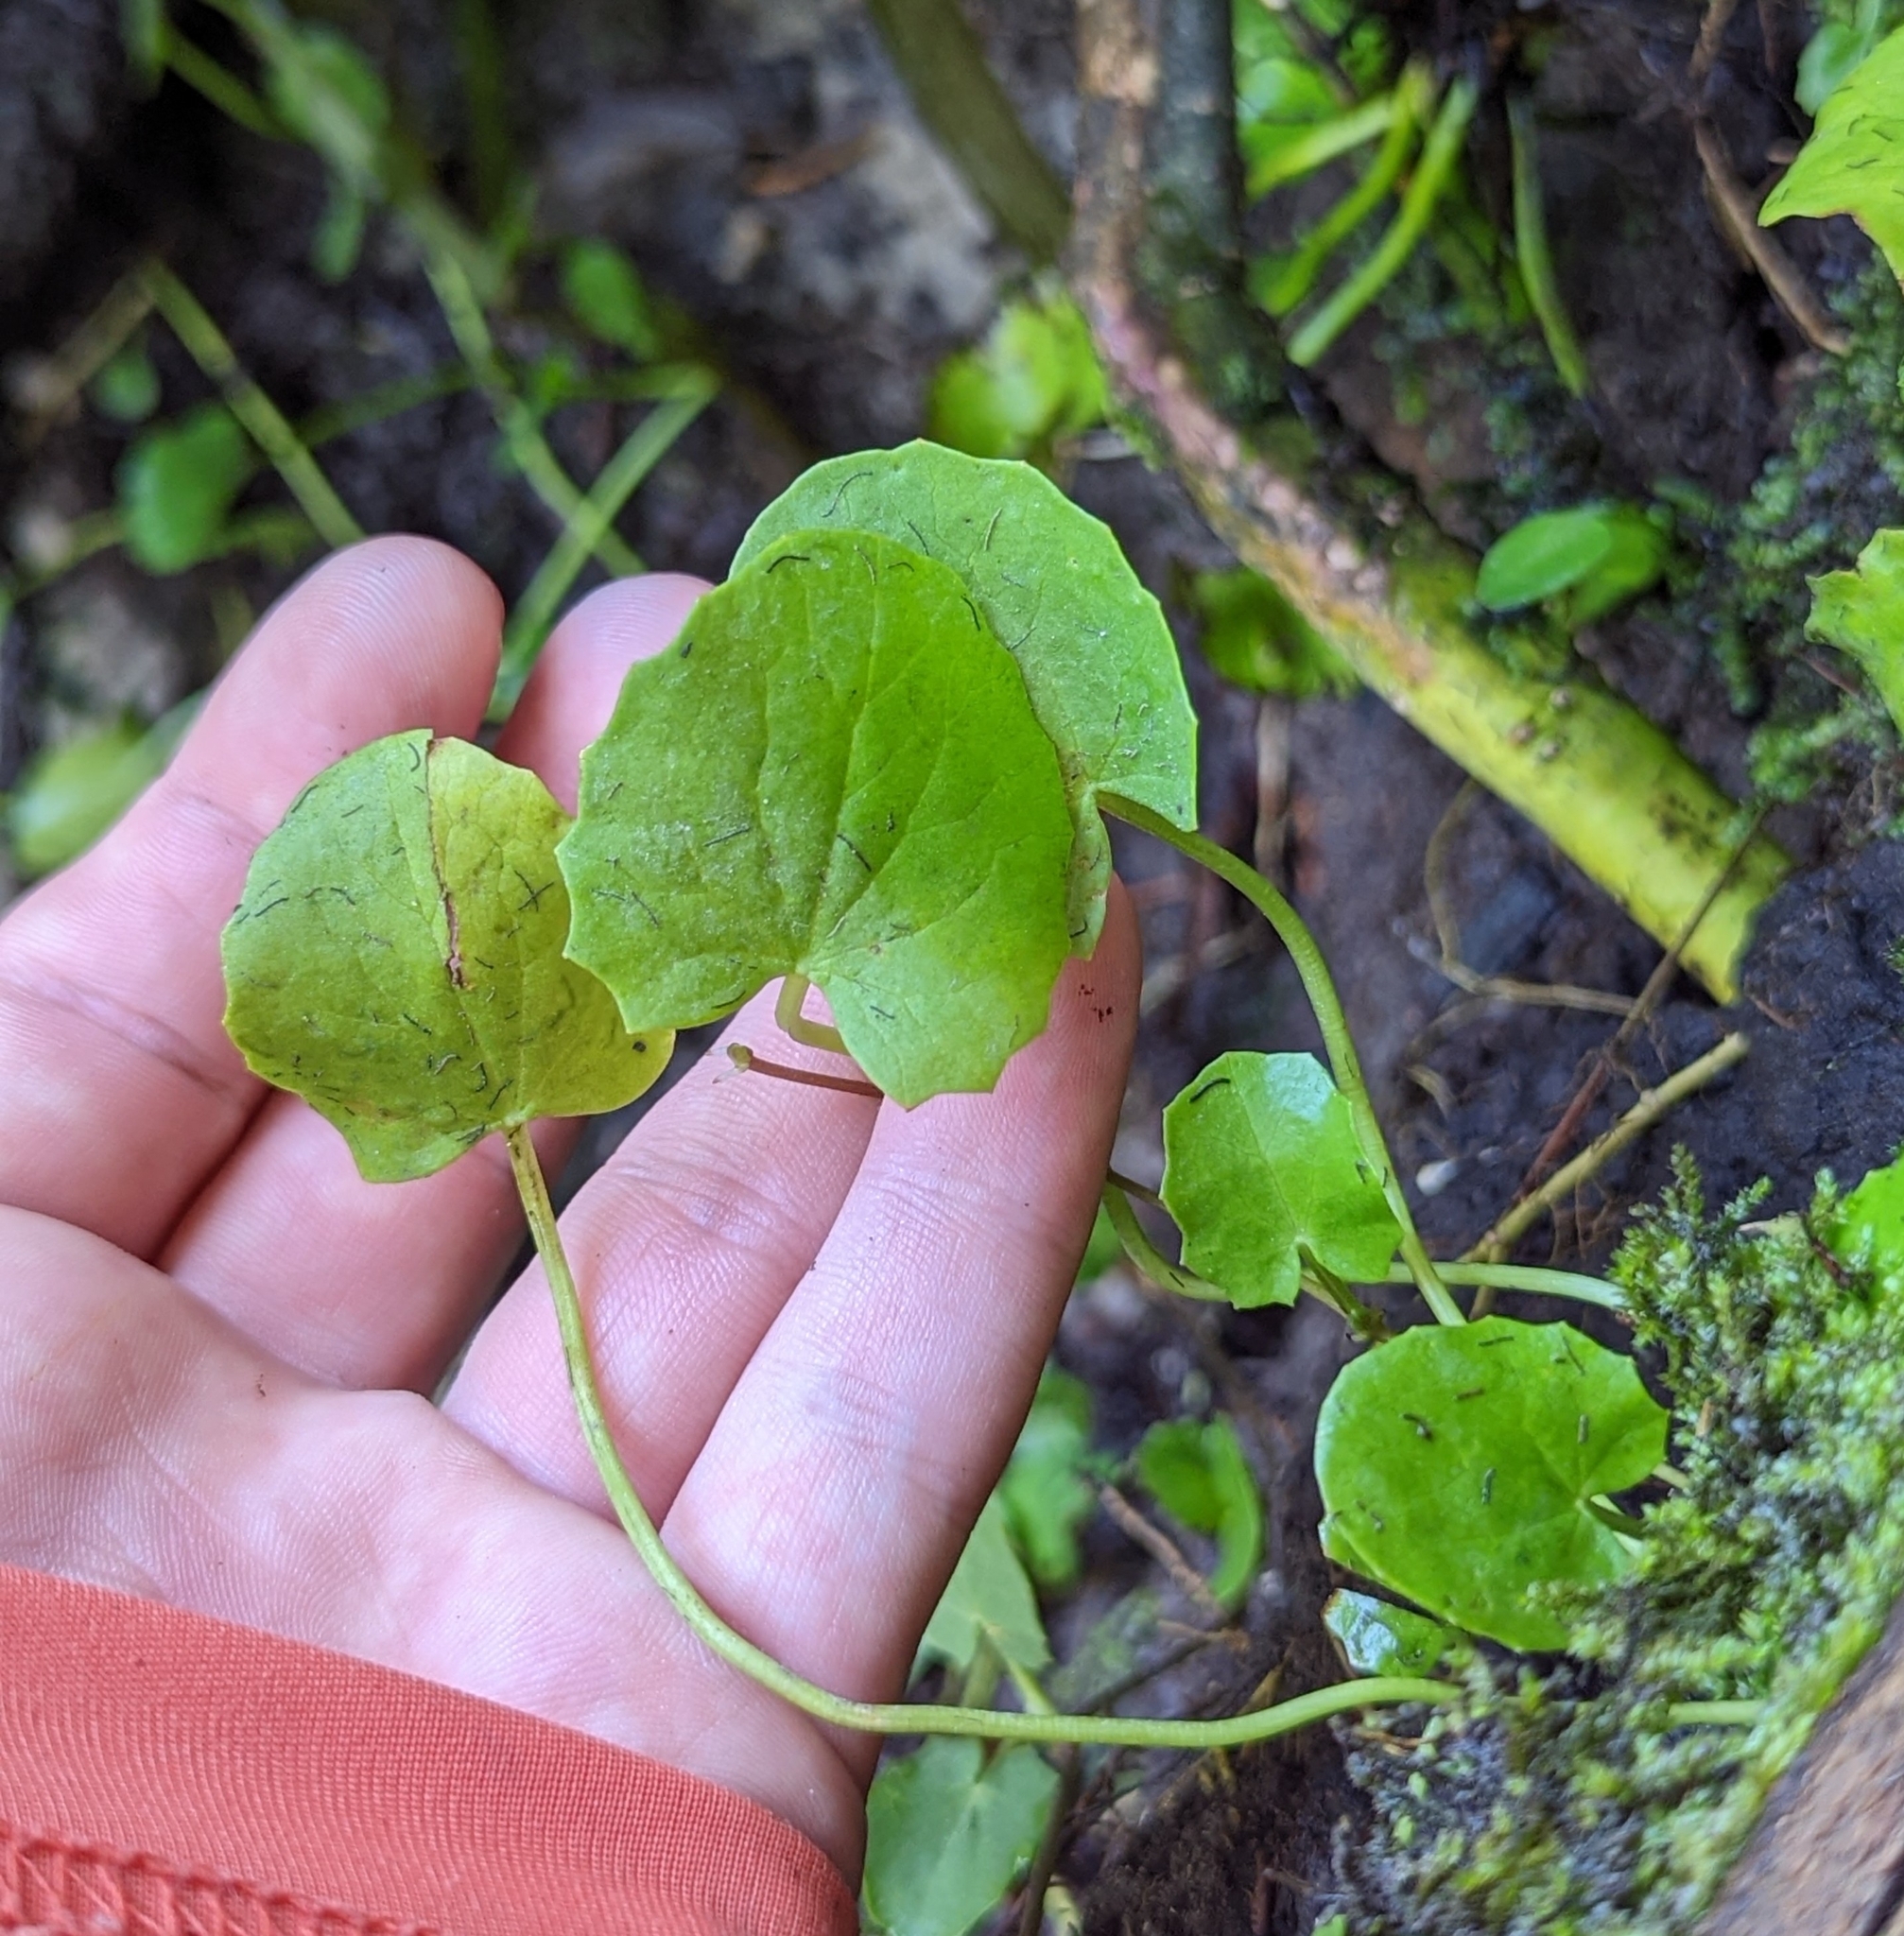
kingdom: Plantae
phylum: Tracheophyta
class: Magnoliopsida
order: Apiales
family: Apiaceae
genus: Centella
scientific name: Centella erecta
